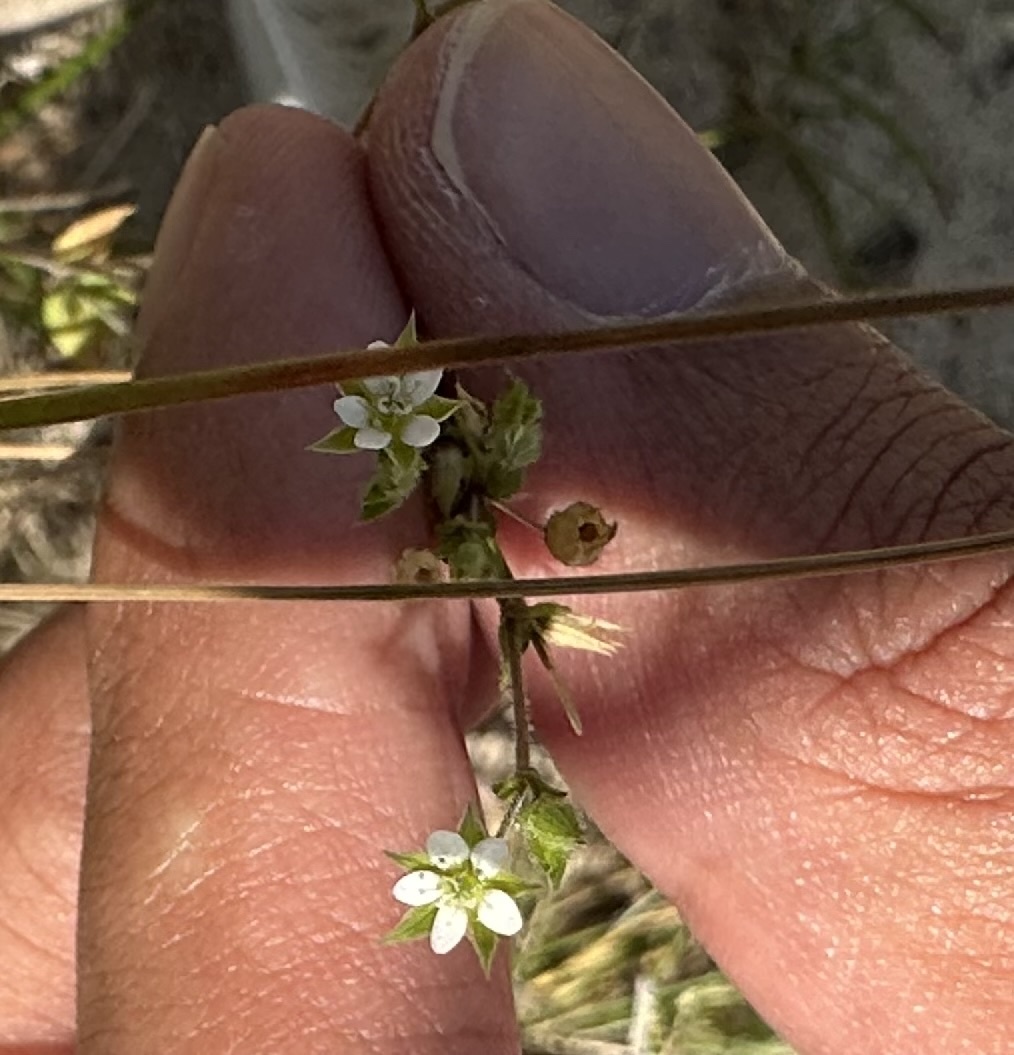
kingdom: Plantae
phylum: Tracheophyta
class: Magnoliopsida
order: Caryophyllales
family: Caryophyllaceae
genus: Arenaria
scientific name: Arenaria serpyllifolia
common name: Thyme-leaved sandwort
